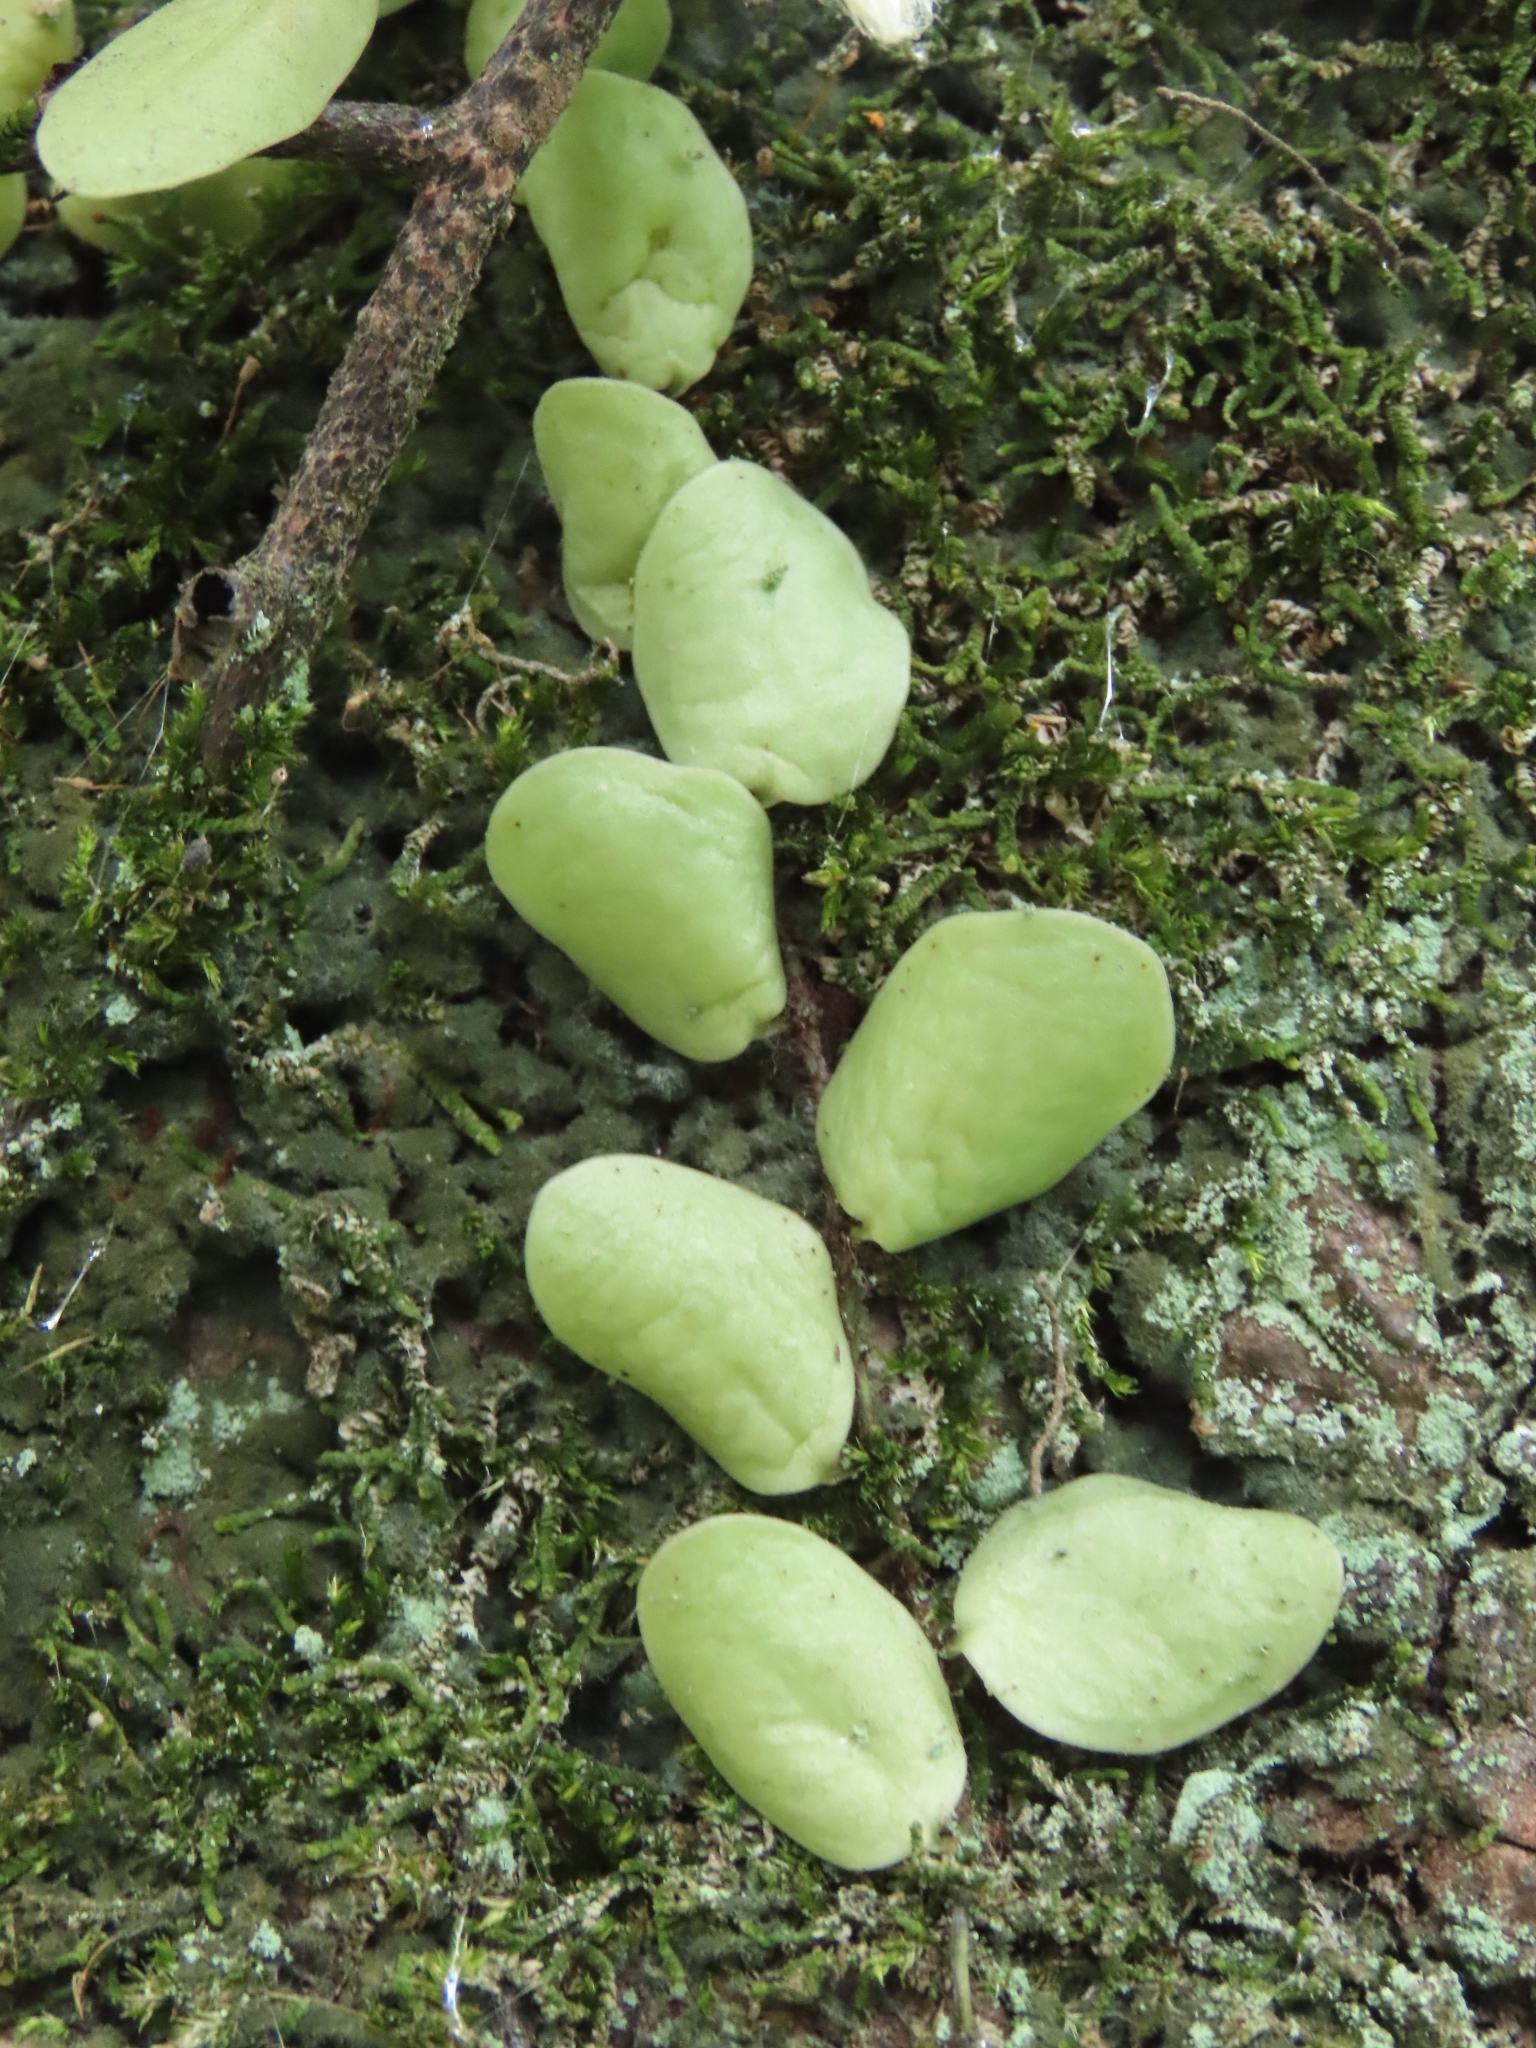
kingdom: Plantae
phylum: Tracheophyta
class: Polypodiopsida
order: Polypodiales
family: Polypodiaceae
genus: Lepisorus
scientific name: Lepisorus microphyllus
